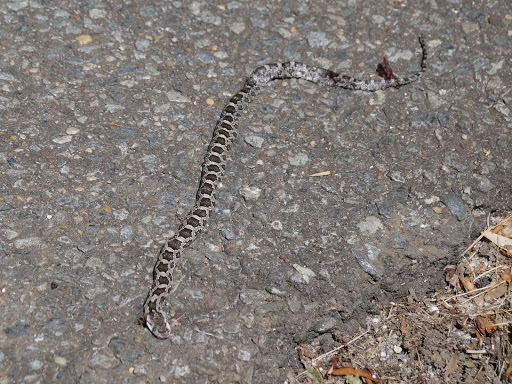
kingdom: Animalia
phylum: Chordata
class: Squamata
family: Colubridae
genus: Pantherophis
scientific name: Pantherophis alleghaniensis
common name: Eastern rat snake
